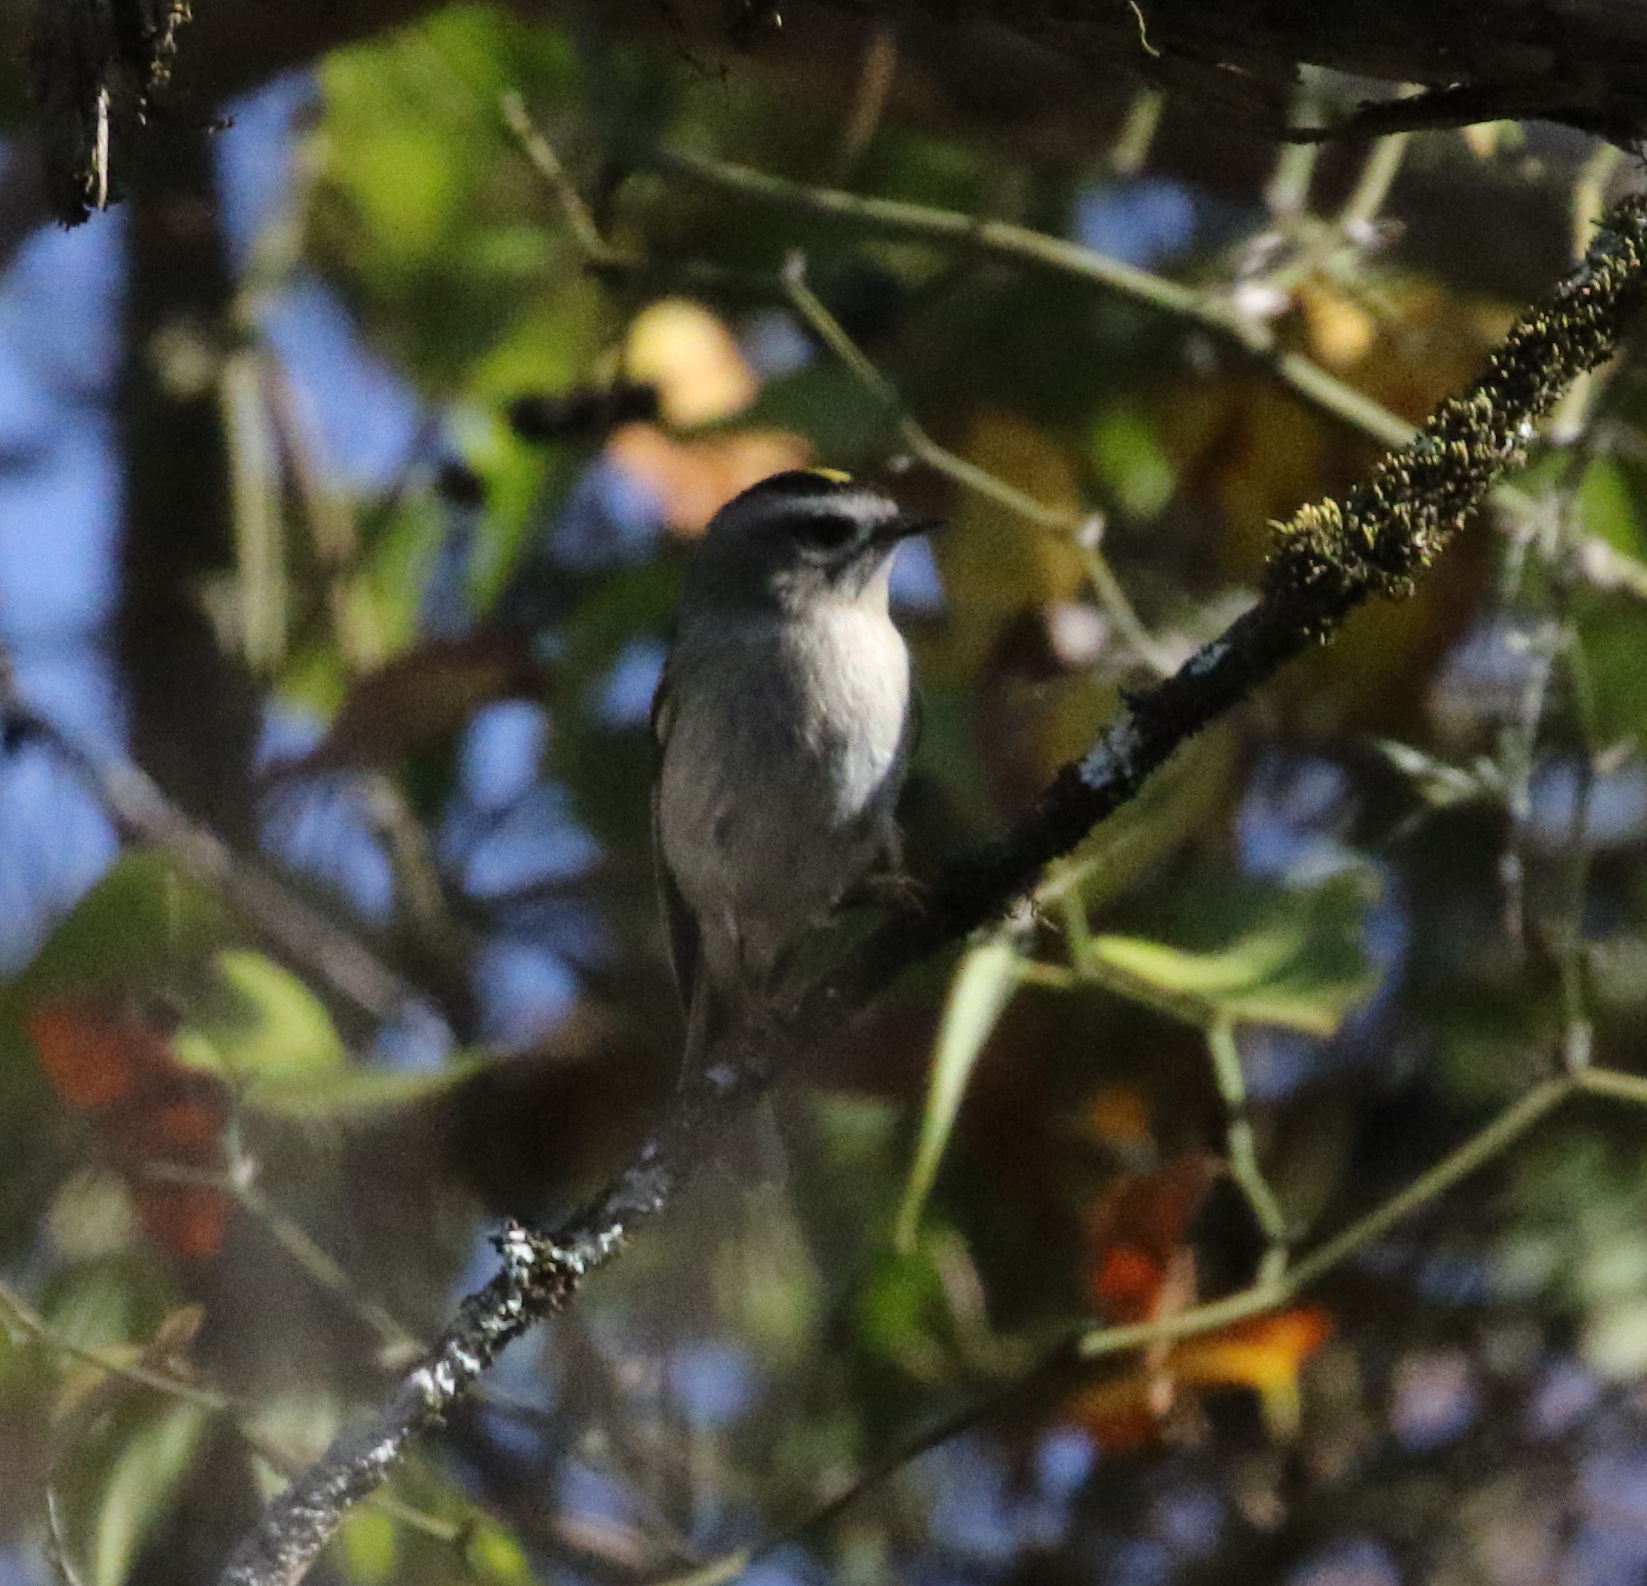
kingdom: Animalia
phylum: Chordata
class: Aves
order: Passeriformes
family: Regulidae
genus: Regulus
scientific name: Regulus satrapa
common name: Golden-crowned kinglet
